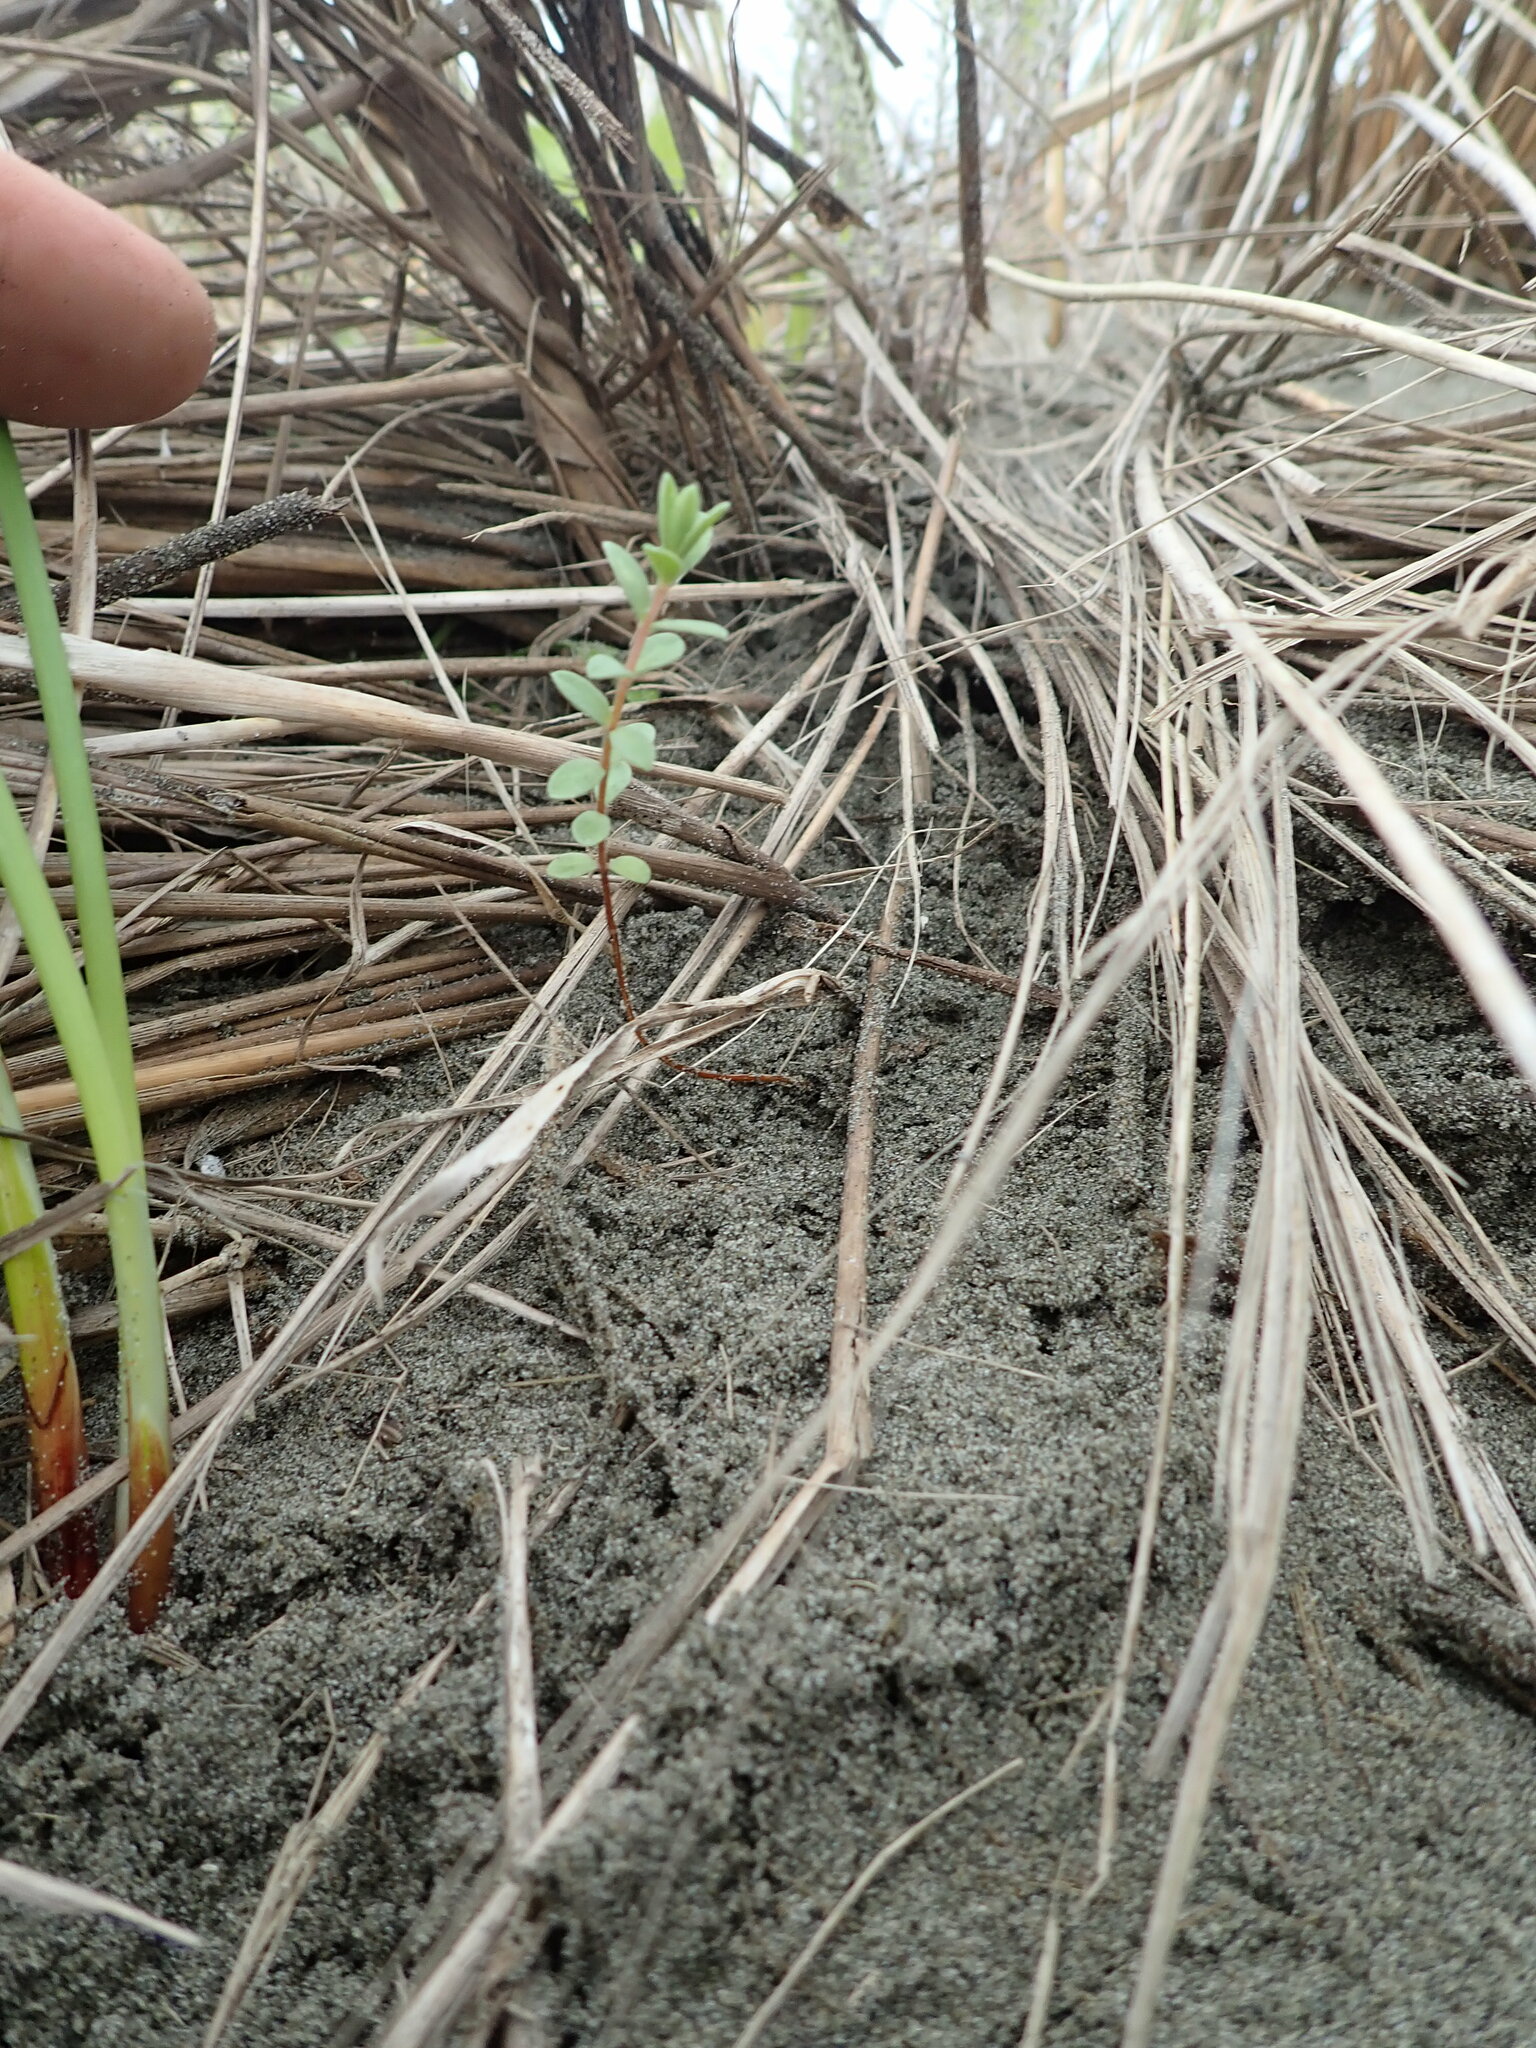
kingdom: Plantae
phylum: Tracheophyta
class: Magnoliopsida
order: Malvales
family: Thymelaeaceae
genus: Pimelea
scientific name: Pimelea villosa
